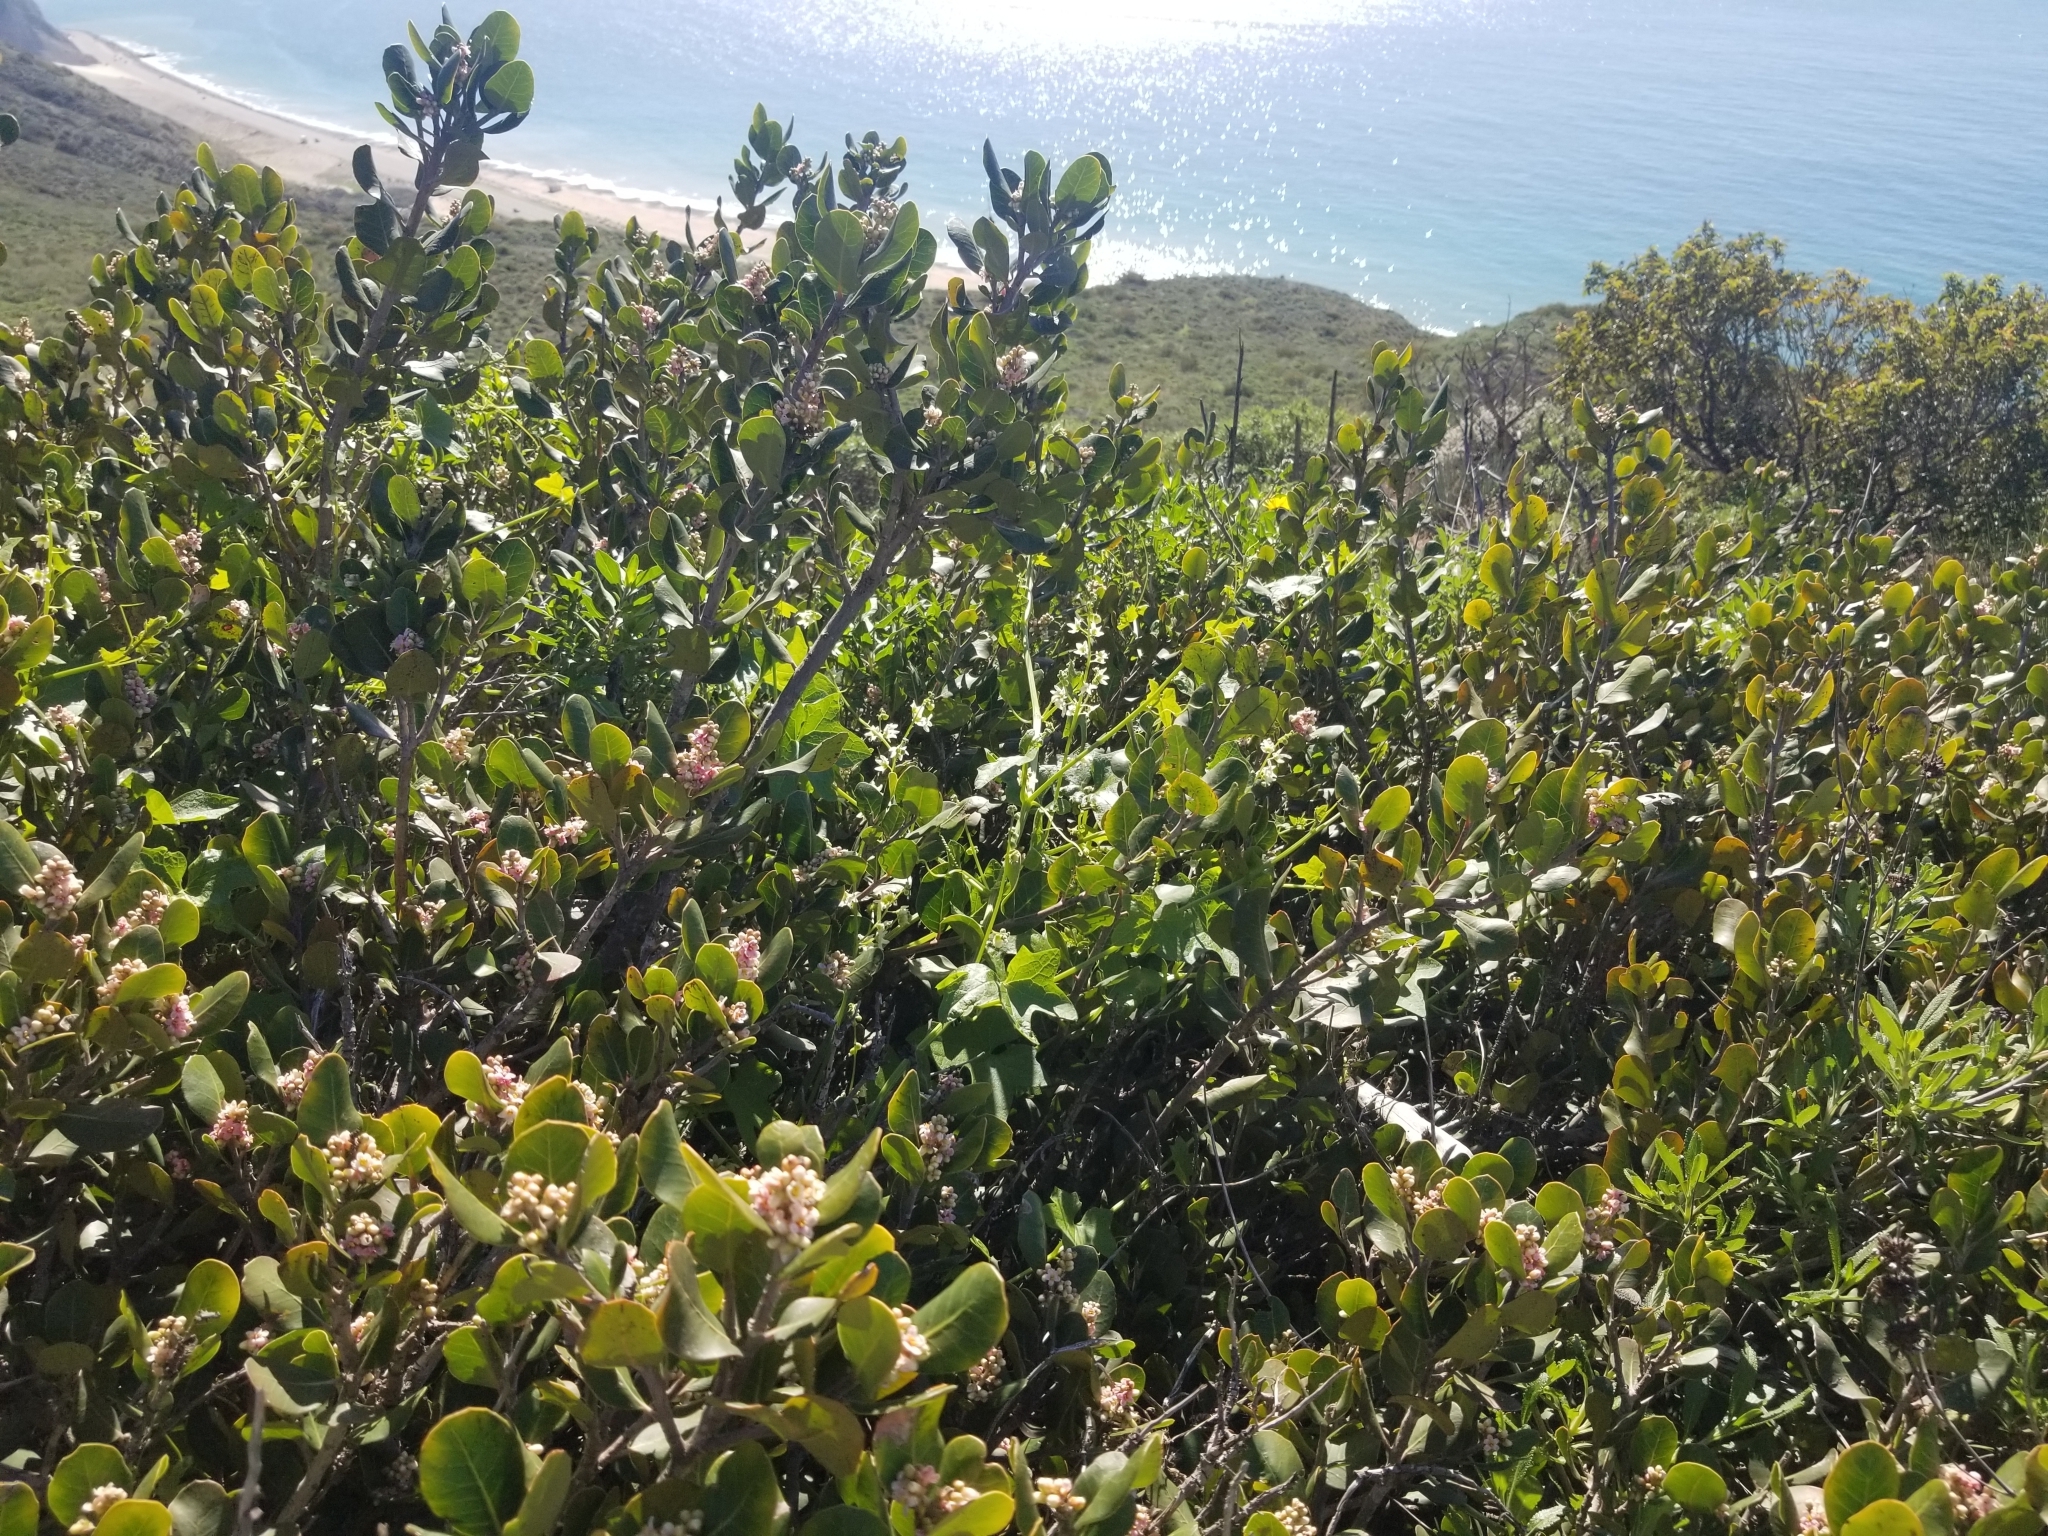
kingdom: Plantae
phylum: Tracheophyta
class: Magnoliopsida
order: Sapindales
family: Anacardiaceae
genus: Rhus
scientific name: Rhus integrifolia
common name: Lemonade sumac
